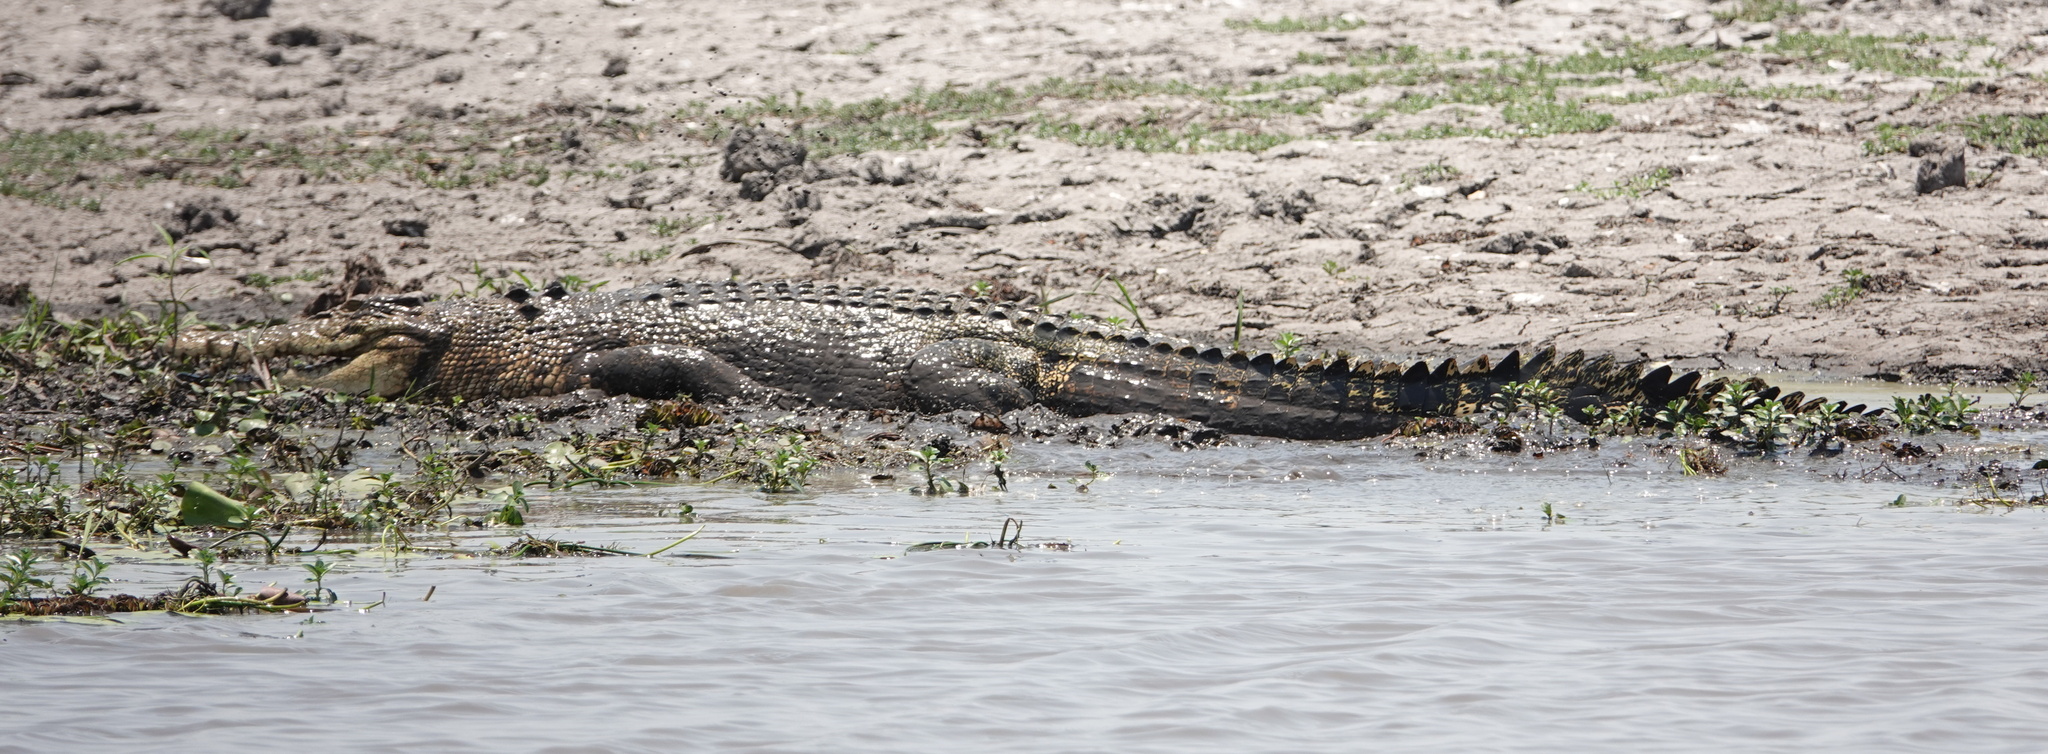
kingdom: Animalia
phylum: Chordata
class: Crocodylia
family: Crocodylidae
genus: Crocodylus
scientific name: Crocodylus porosus
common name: Saltwater crocodile
